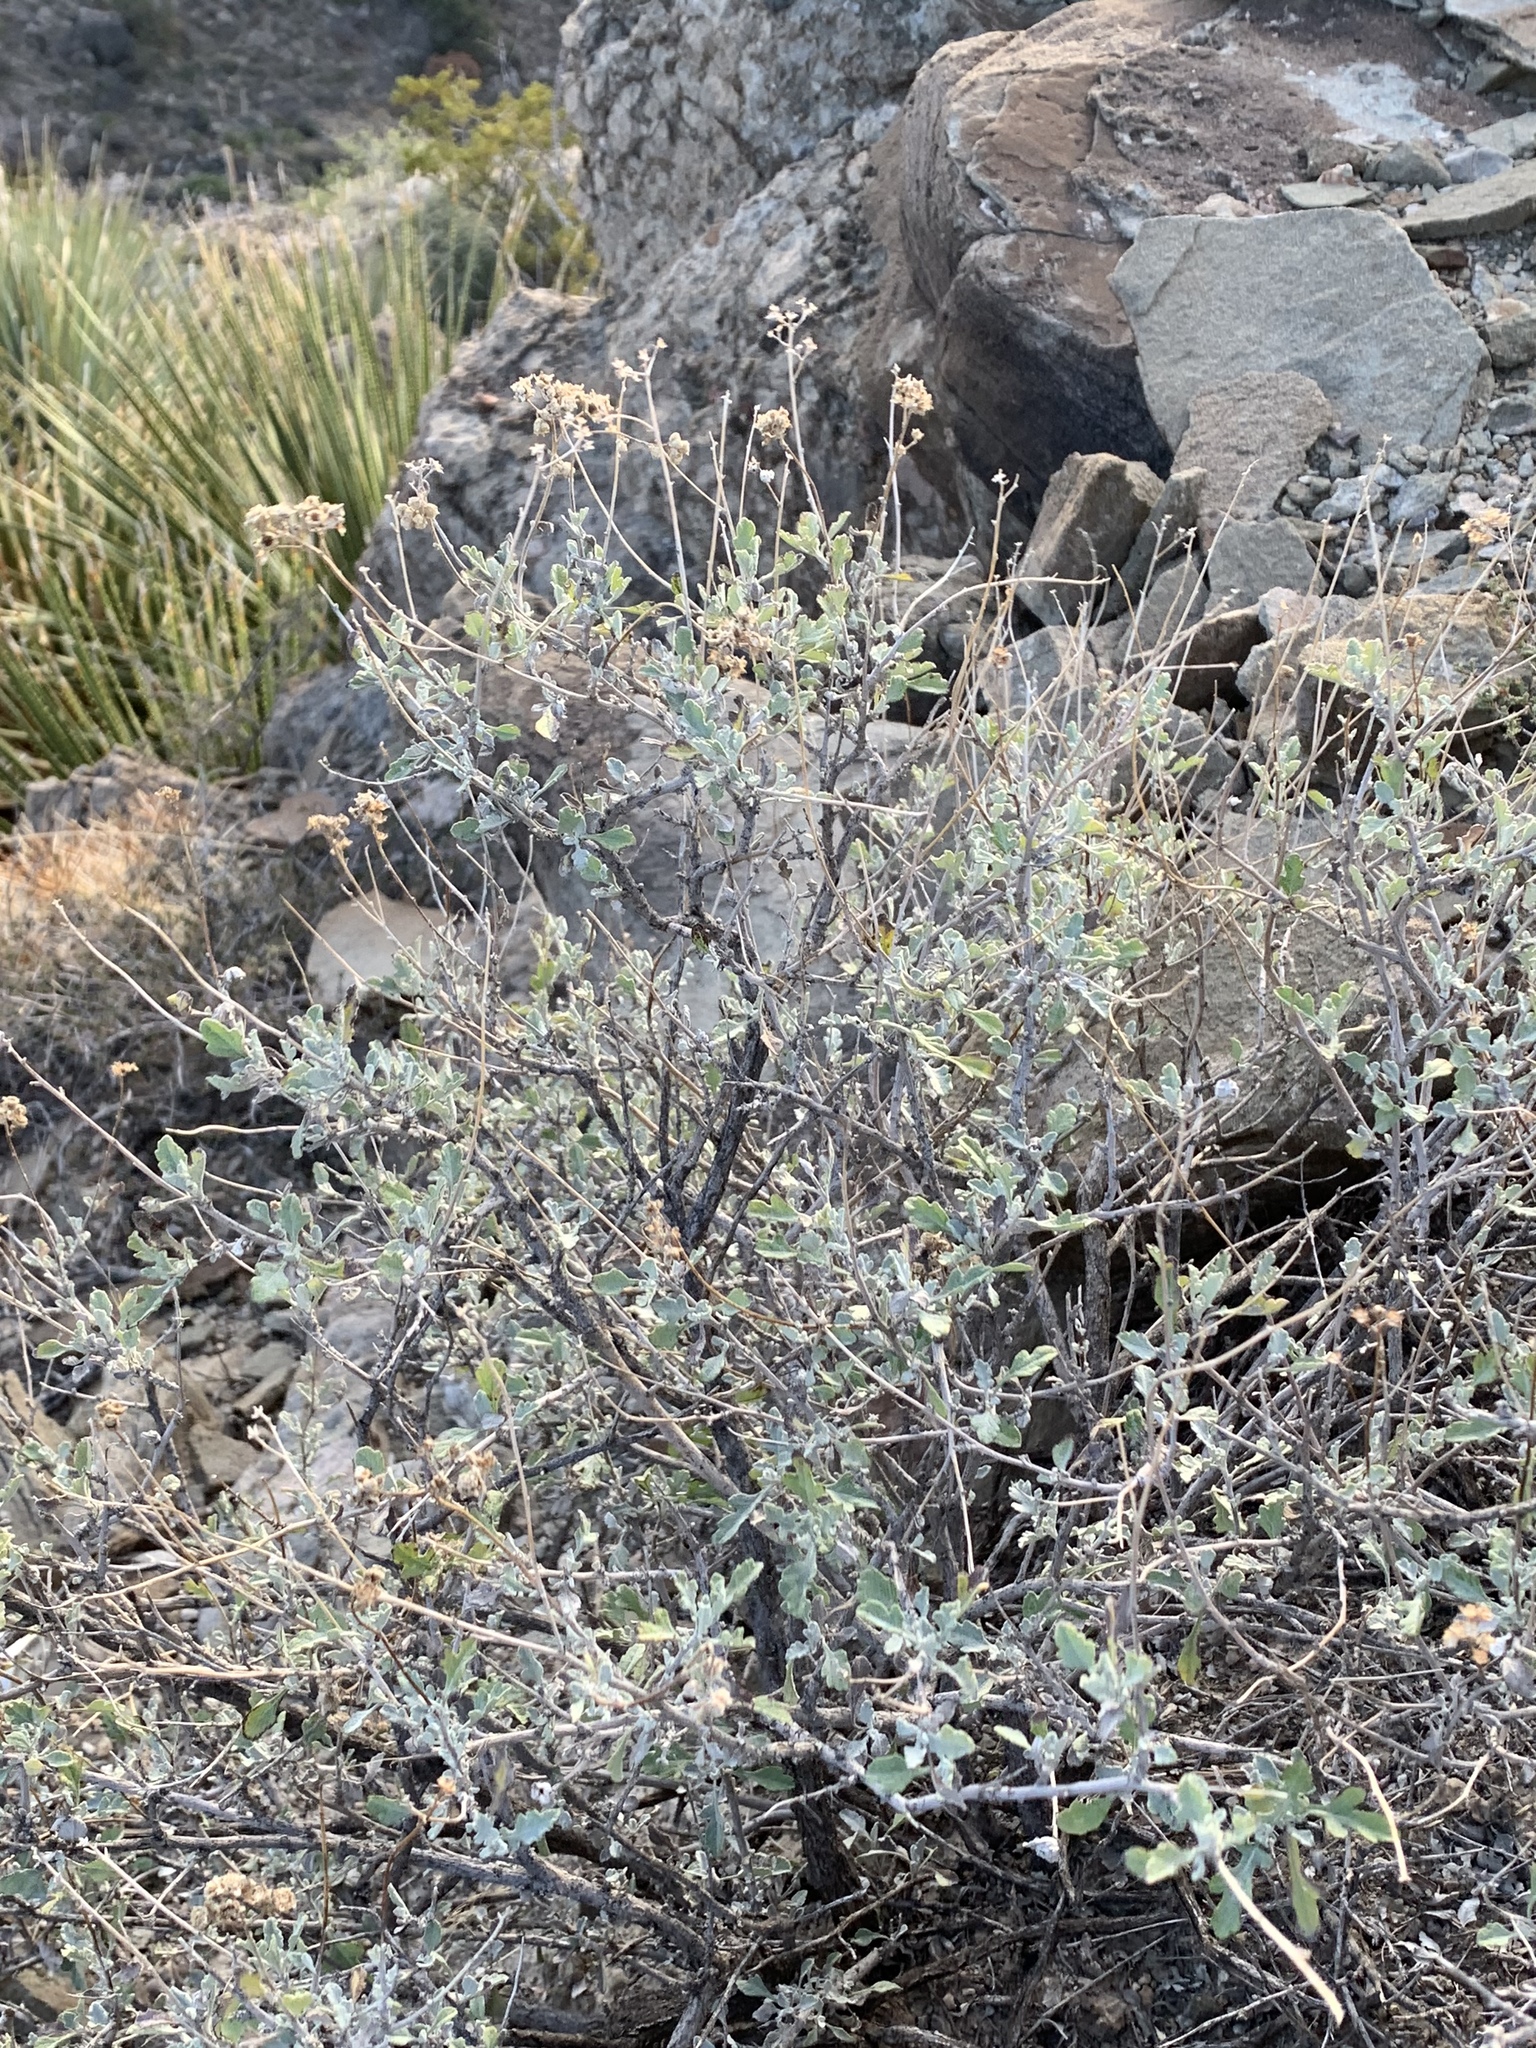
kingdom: Plantae
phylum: Tracheophyta
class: Magnoliopsida
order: Asterales
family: Asteraceae
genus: Parthenium
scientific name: Parthenium incanum
